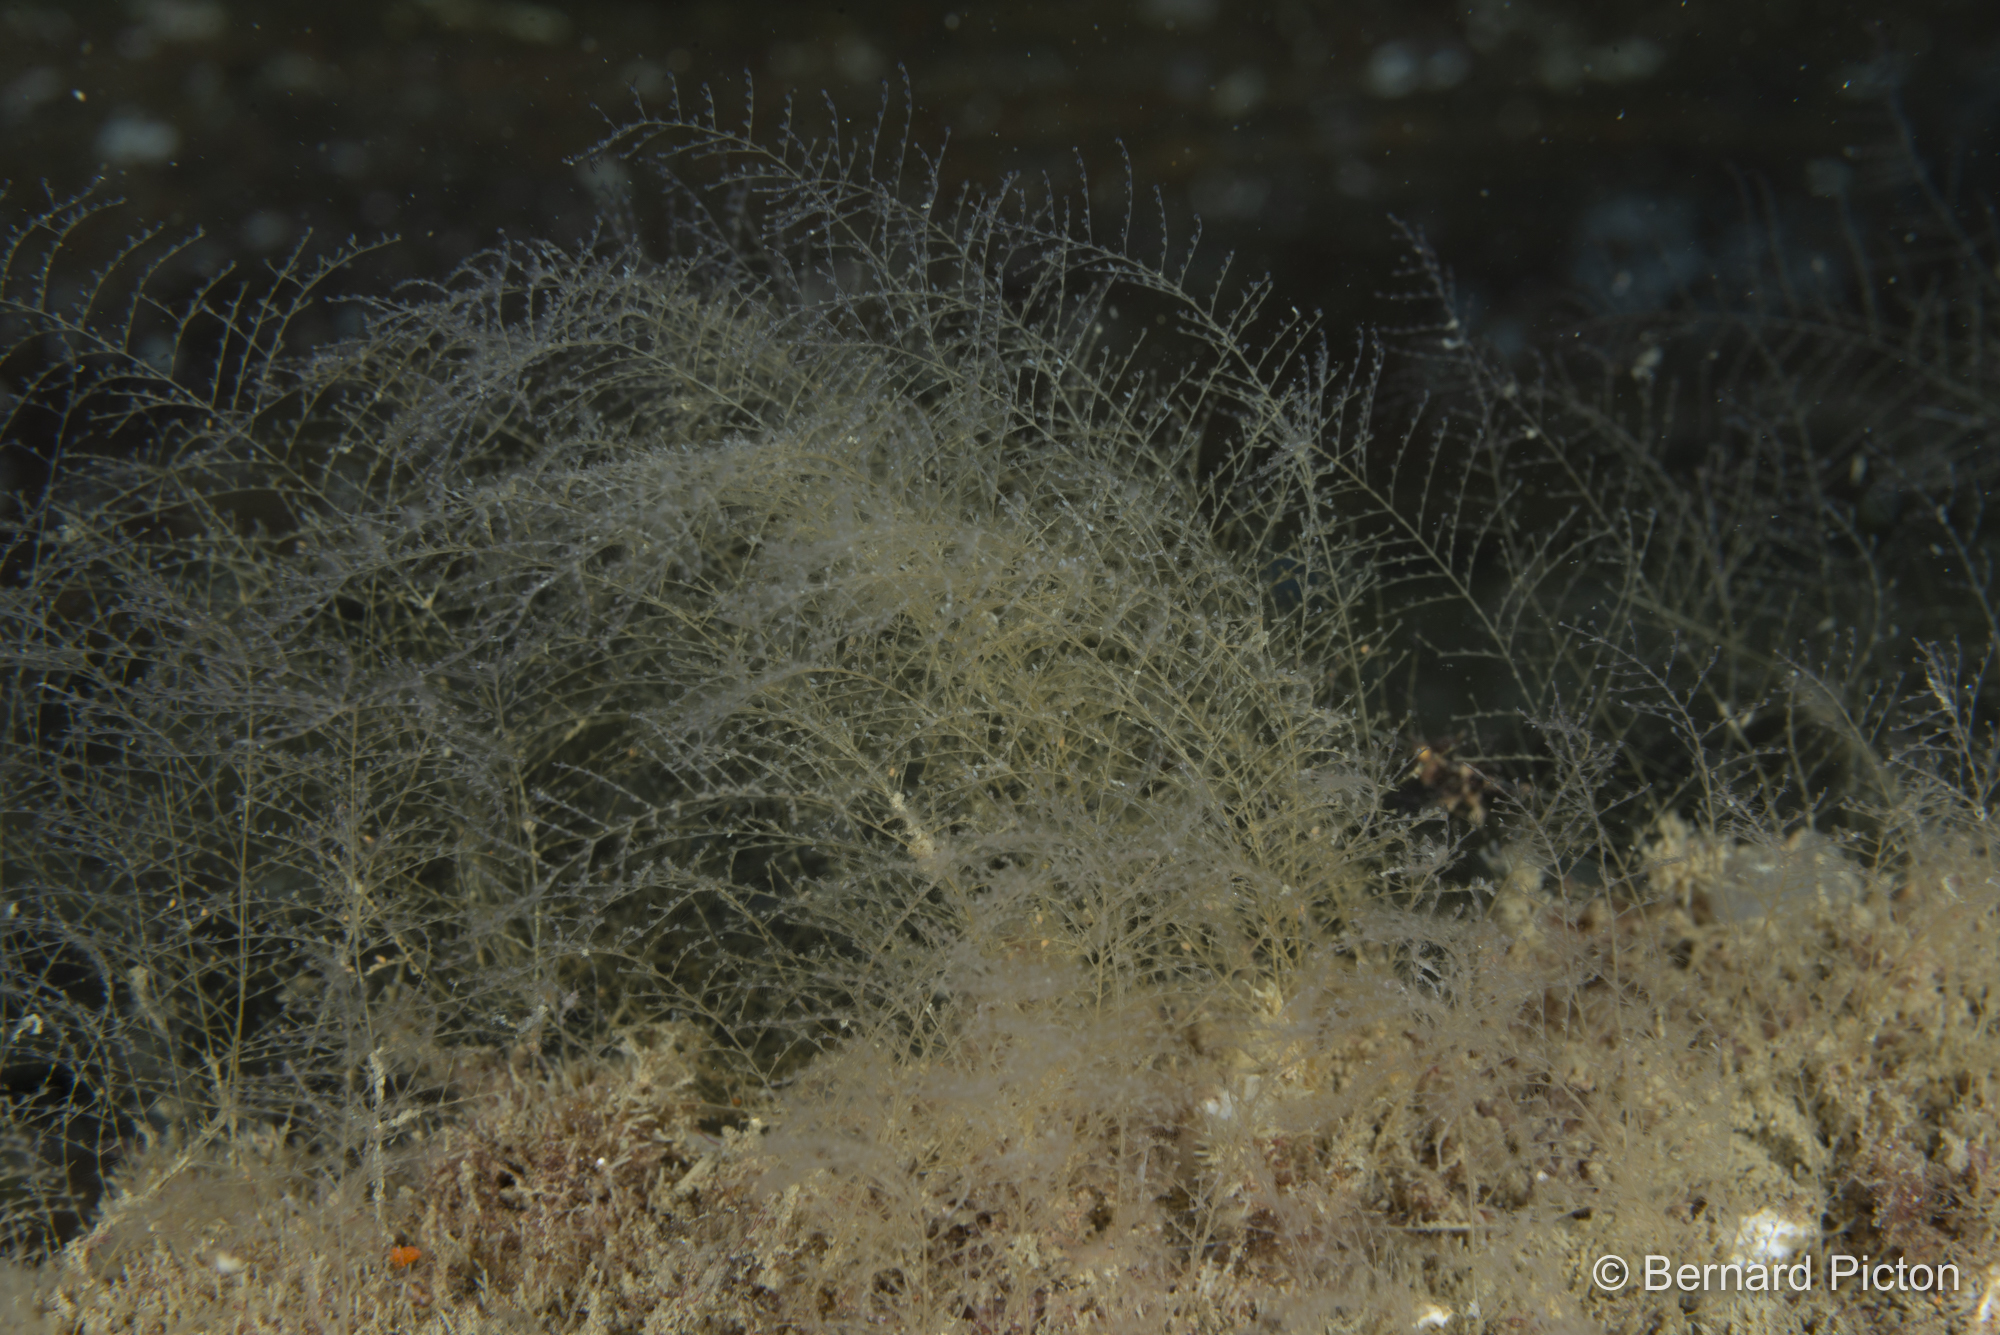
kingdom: Animalia
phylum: Cnidaria
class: Hydrozoa
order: Leptothecata
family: Halopterididae
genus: Halopteris
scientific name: Halopteris catharina
